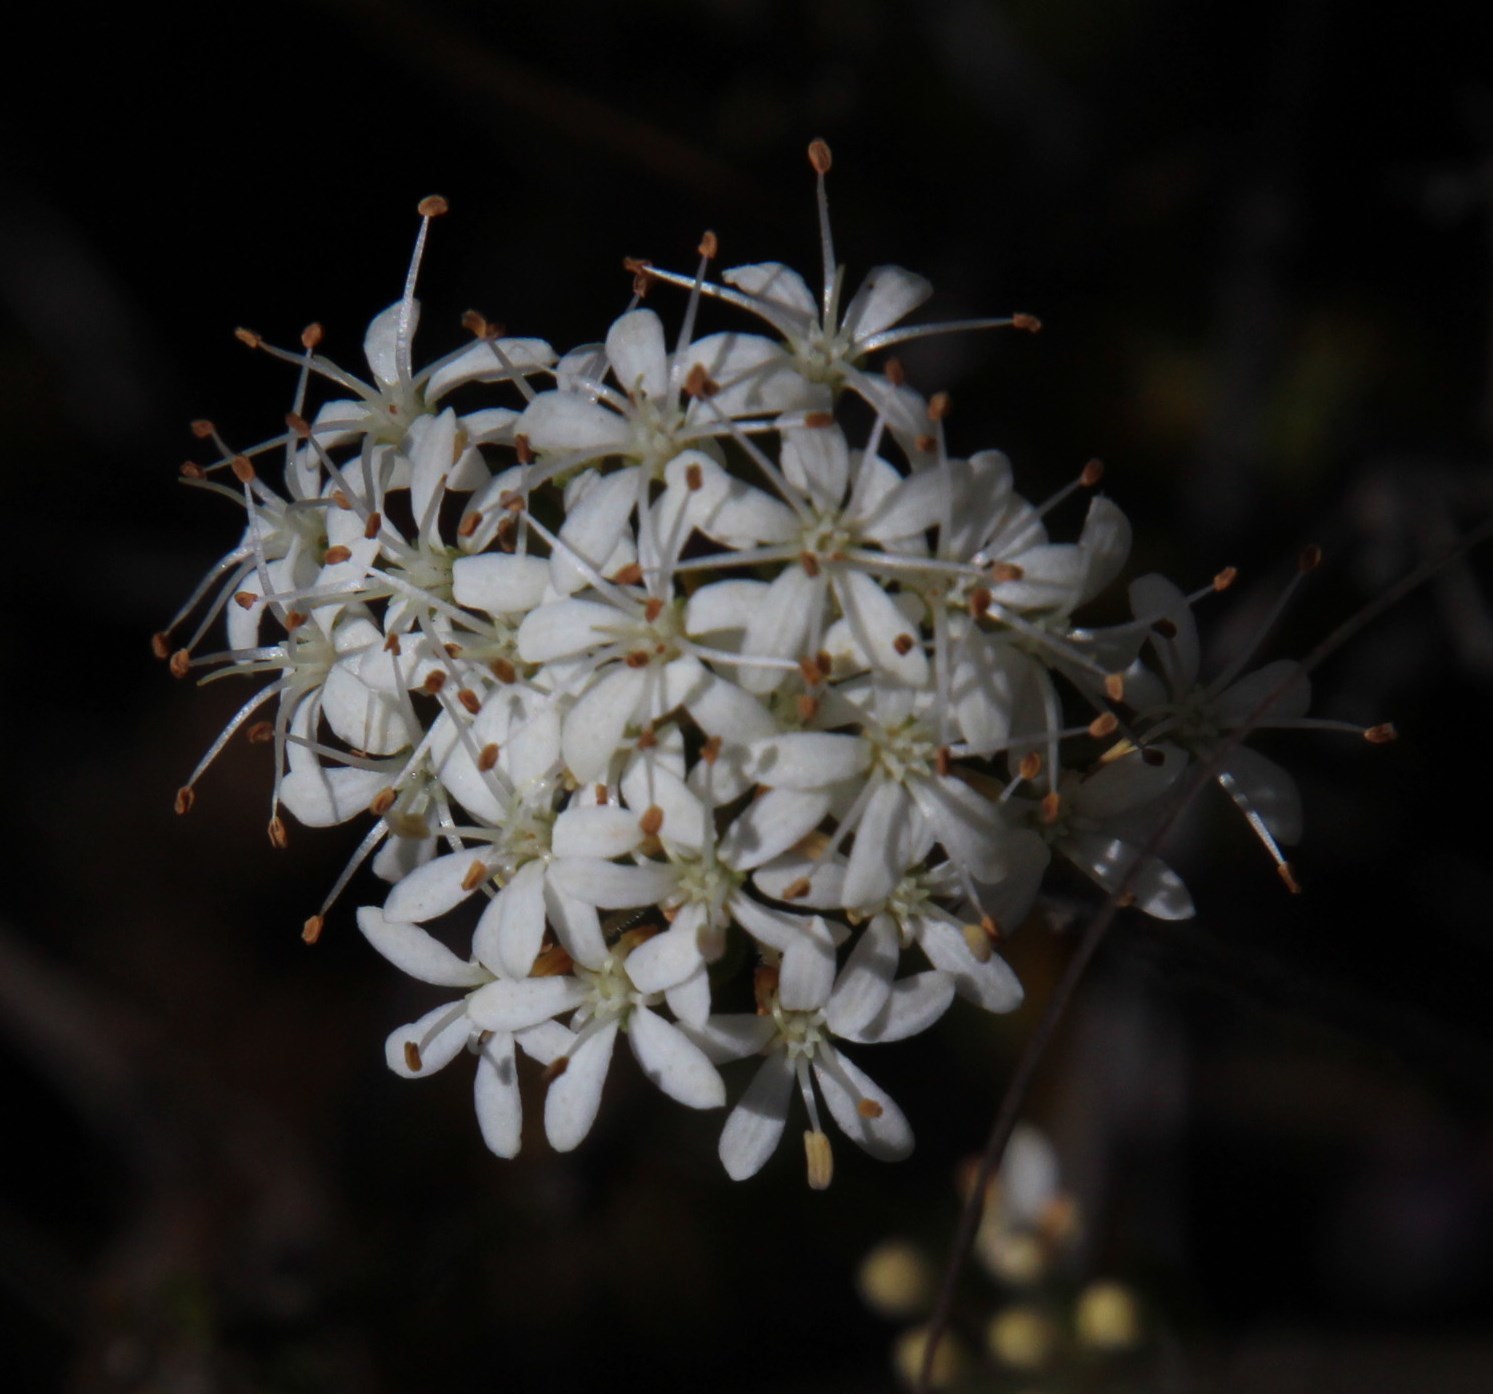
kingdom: Plantae
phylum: Tracheophyta
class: Magnoliopsida
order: Sapindales
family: Rutaceae
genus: Agathosma
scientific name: Agathosma mundtii
